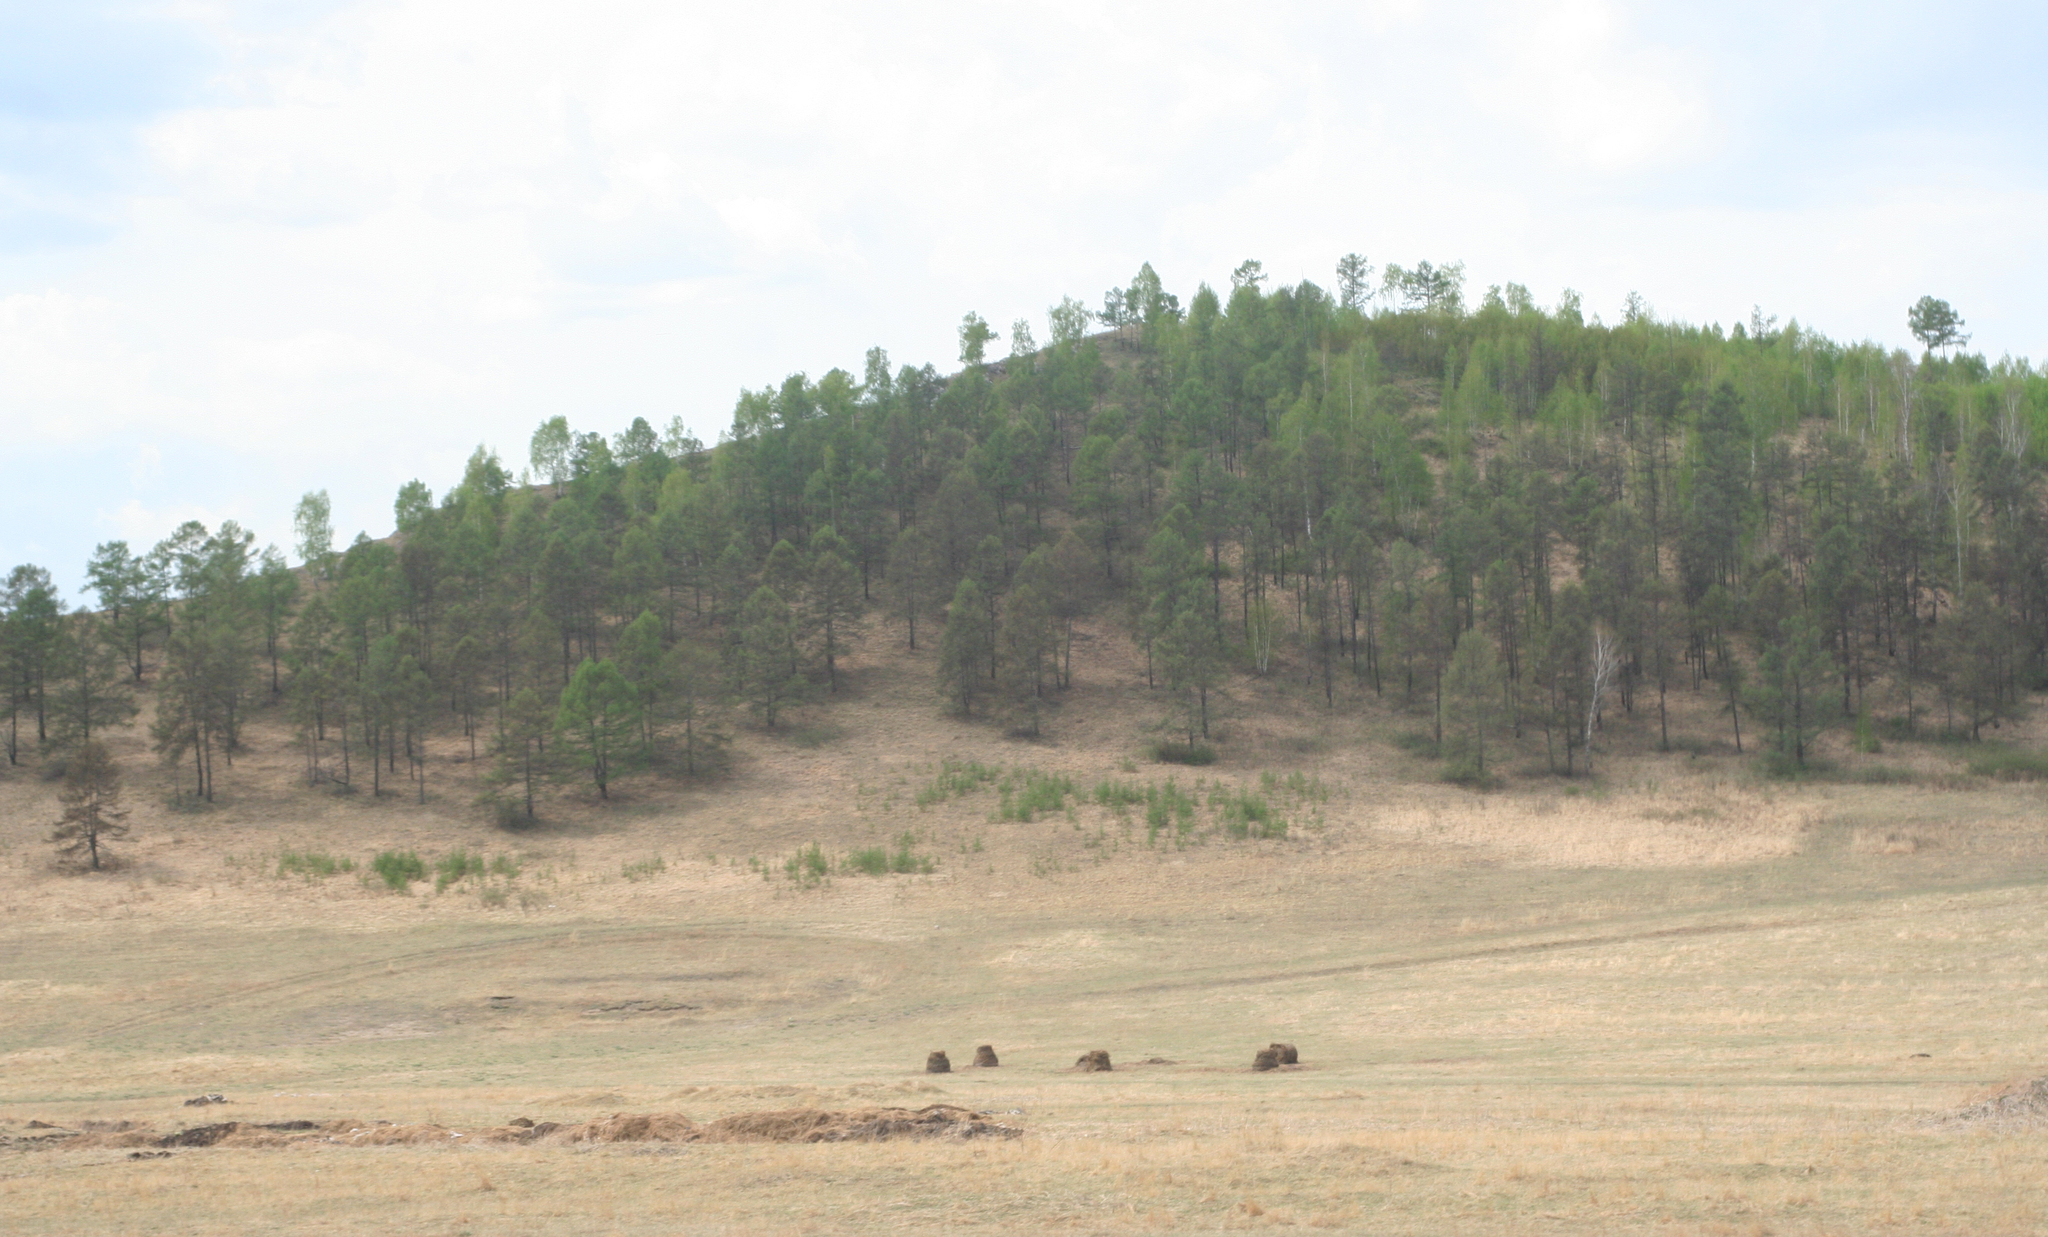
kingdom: Plantae
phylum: Tracheophyta
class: Pinopsida
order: Pinales
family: Pinaceae
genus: Larix
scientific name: Larix sibirica
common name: Siberian larch
